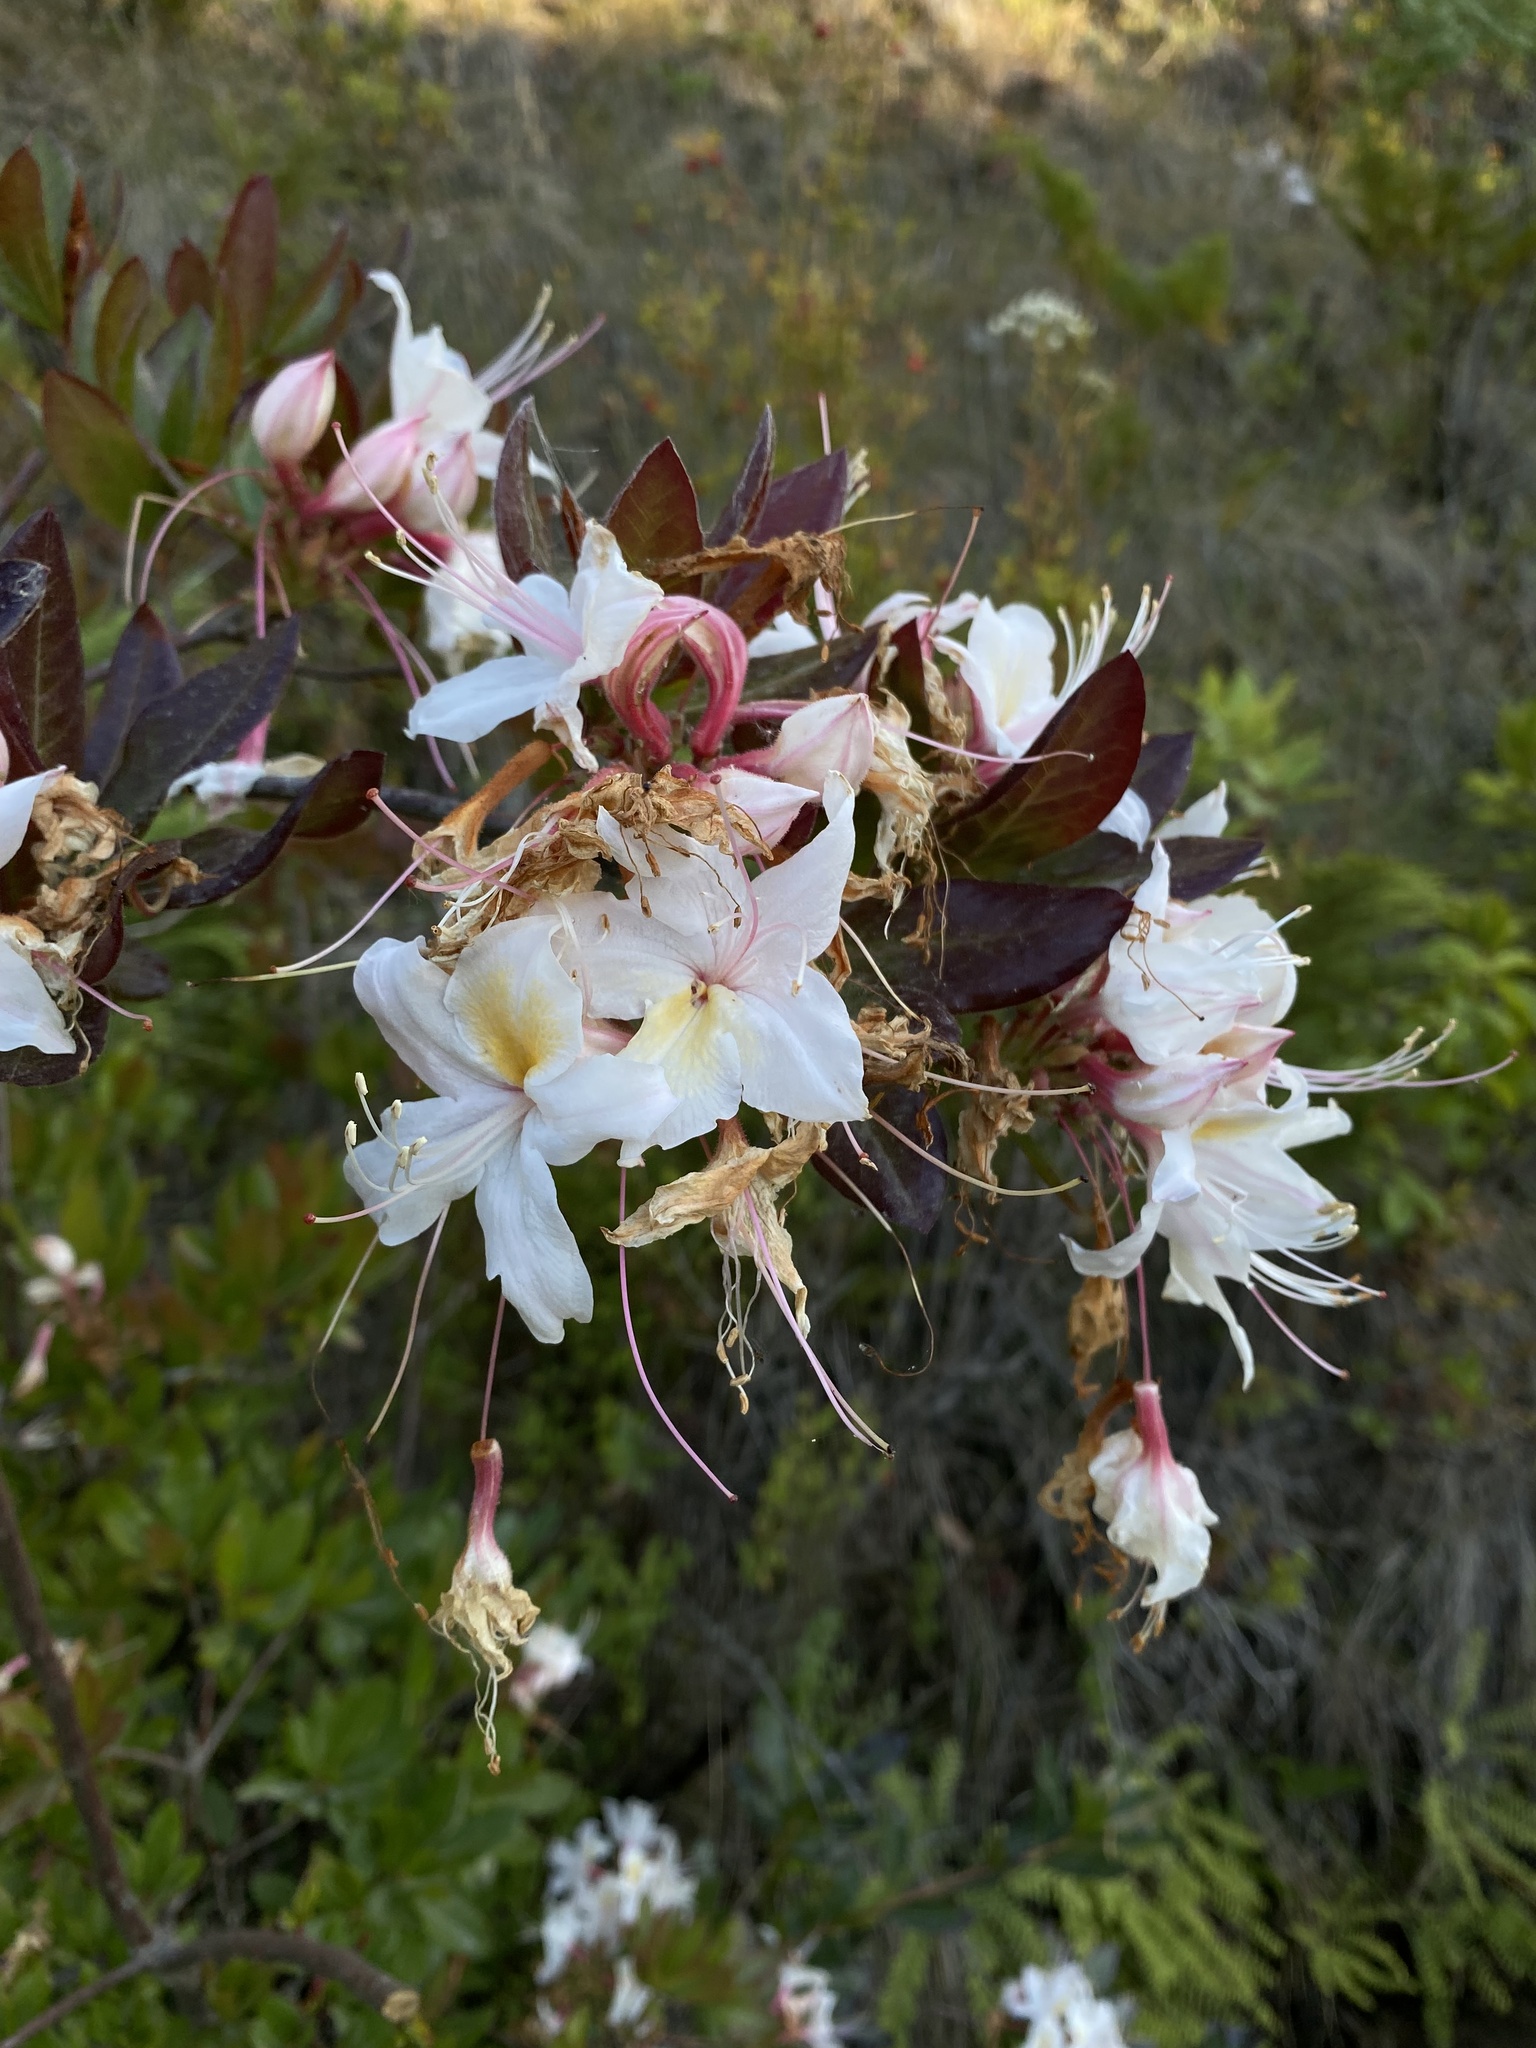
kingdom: Plantae
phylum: Tracheophyta
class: Magnoliopsida
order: Ericales
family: Ericaceae
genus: Rhododendron
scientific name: Rhododendron occidentale
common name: Western azalea
